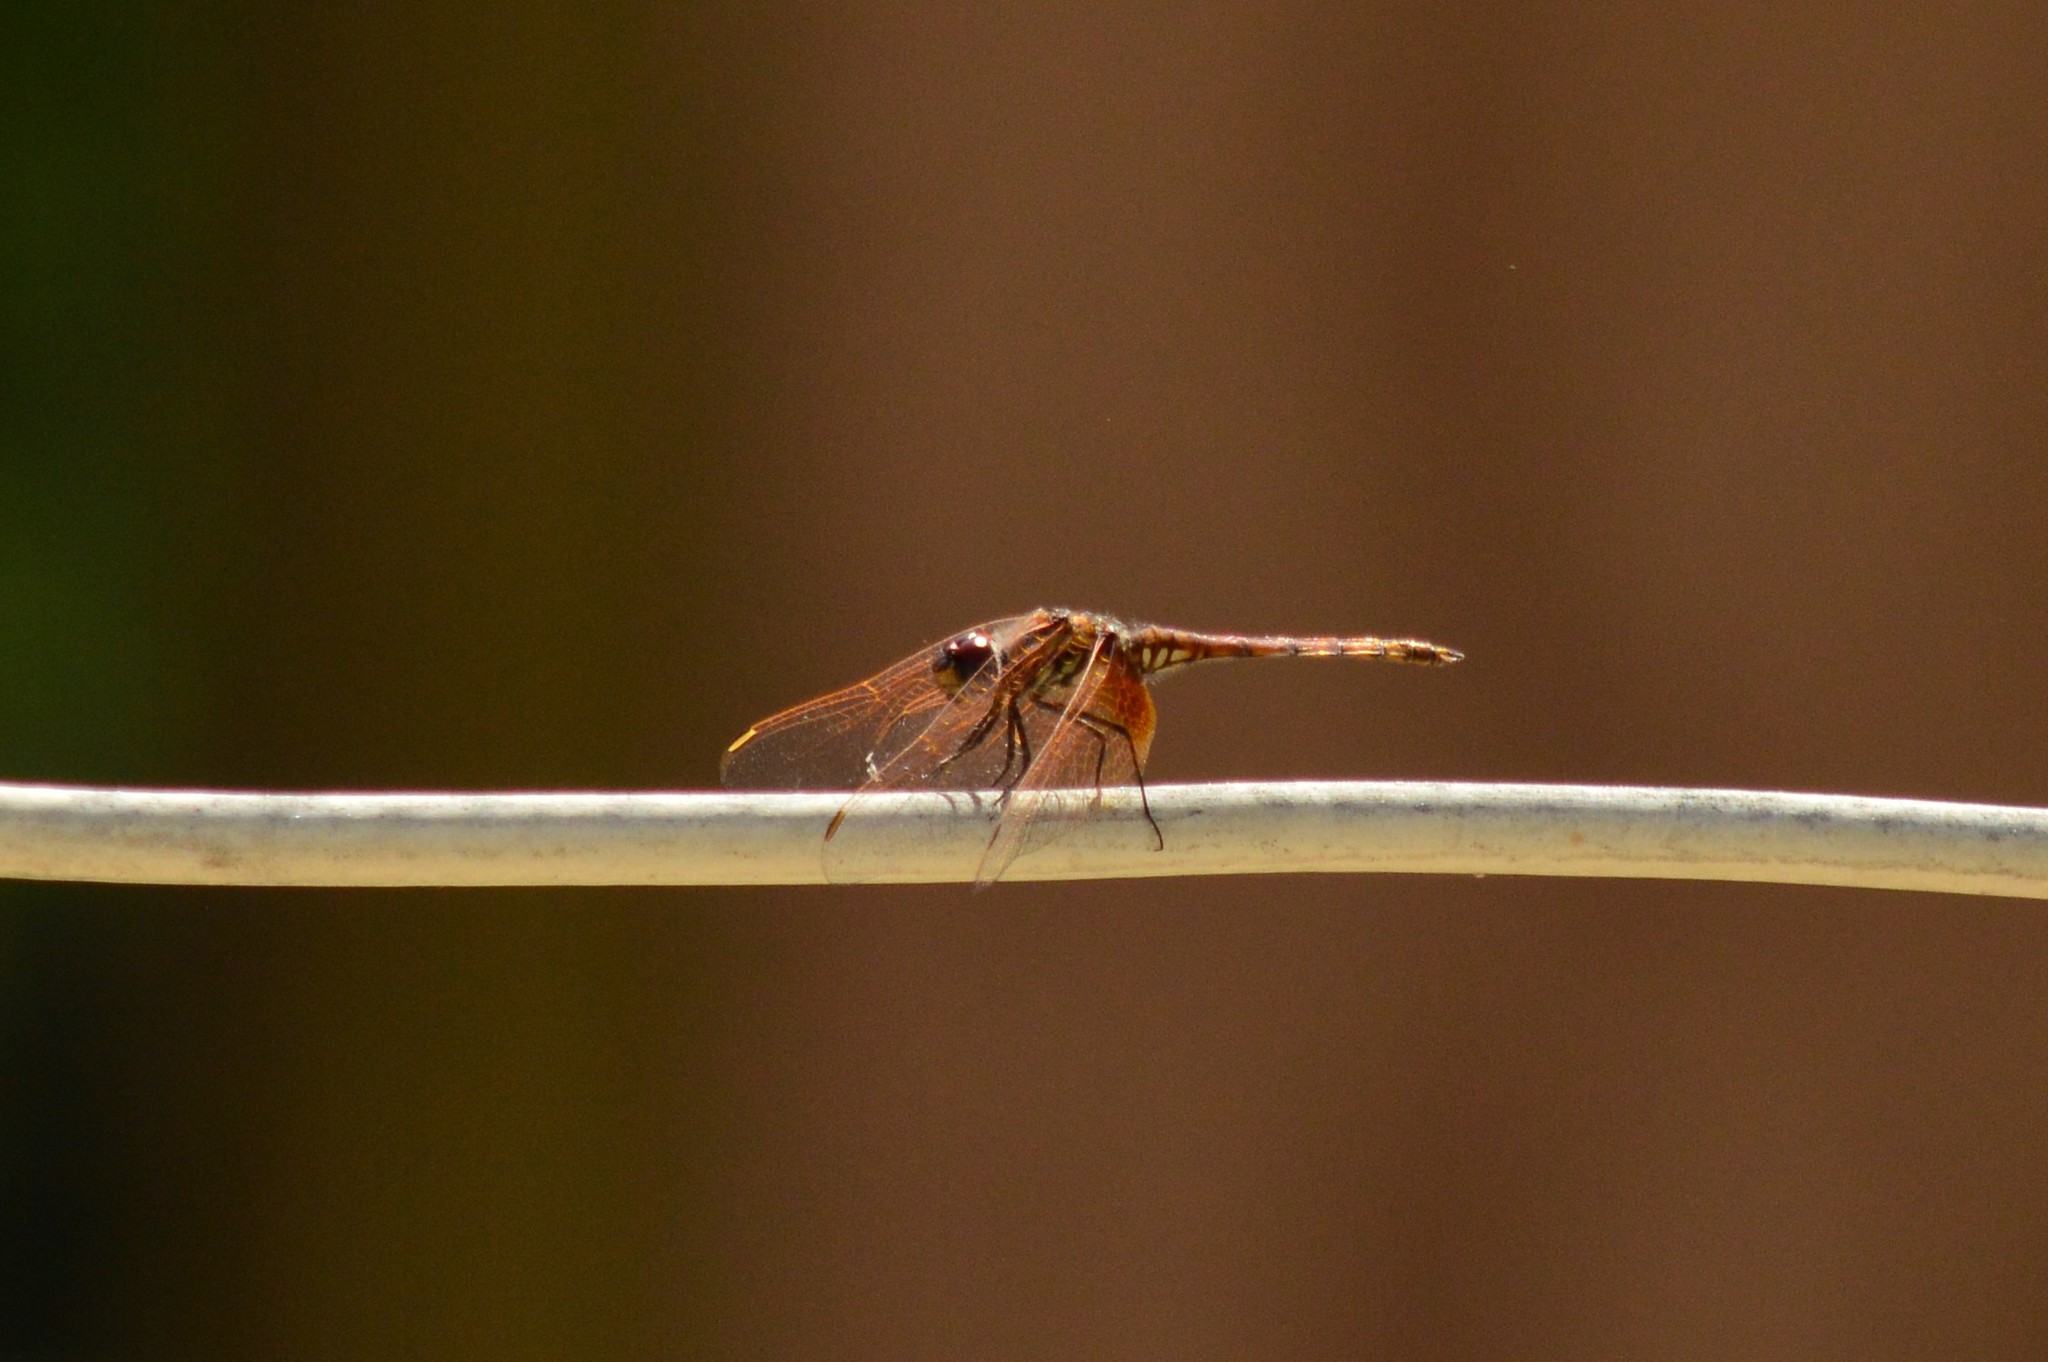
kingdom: Animalia
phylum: Arthropoda
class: Insecta
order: Odonata
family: Libellulidae
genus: Trithemis
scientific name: Trithemis arteriosa
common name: Red-veined dropwing
